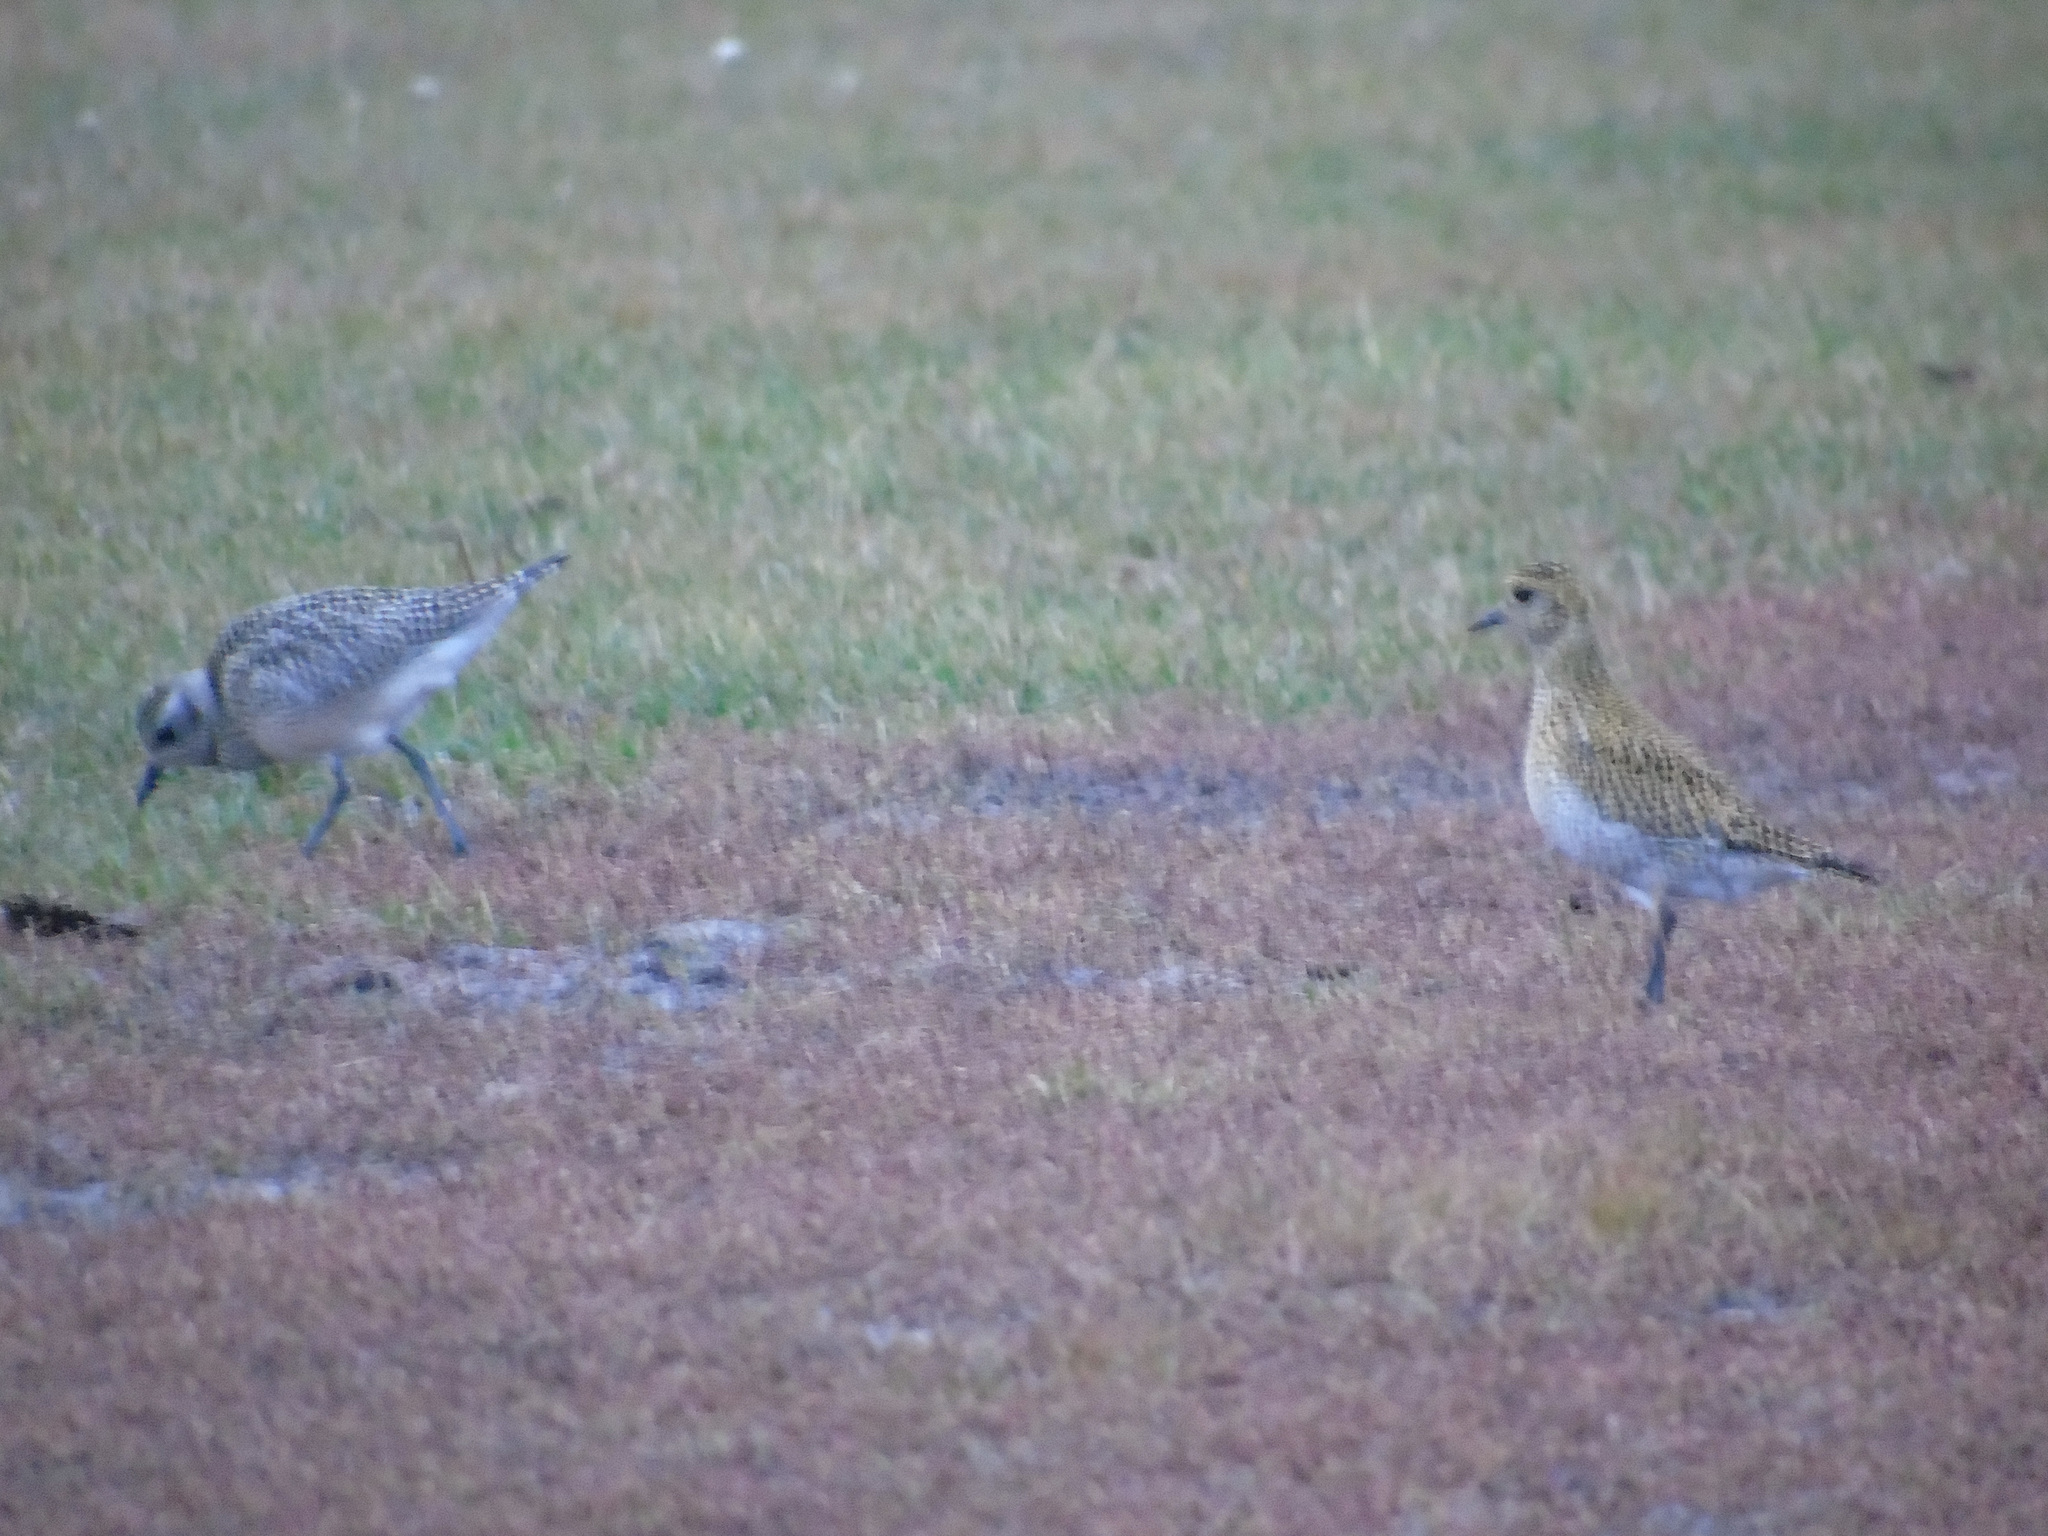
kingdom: Animalia
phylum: Chordata
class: Aves
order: Charadriiformes
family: Charadriidae
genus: Pluvialis
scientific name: Pluvialis apricaria
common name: European golden plover
